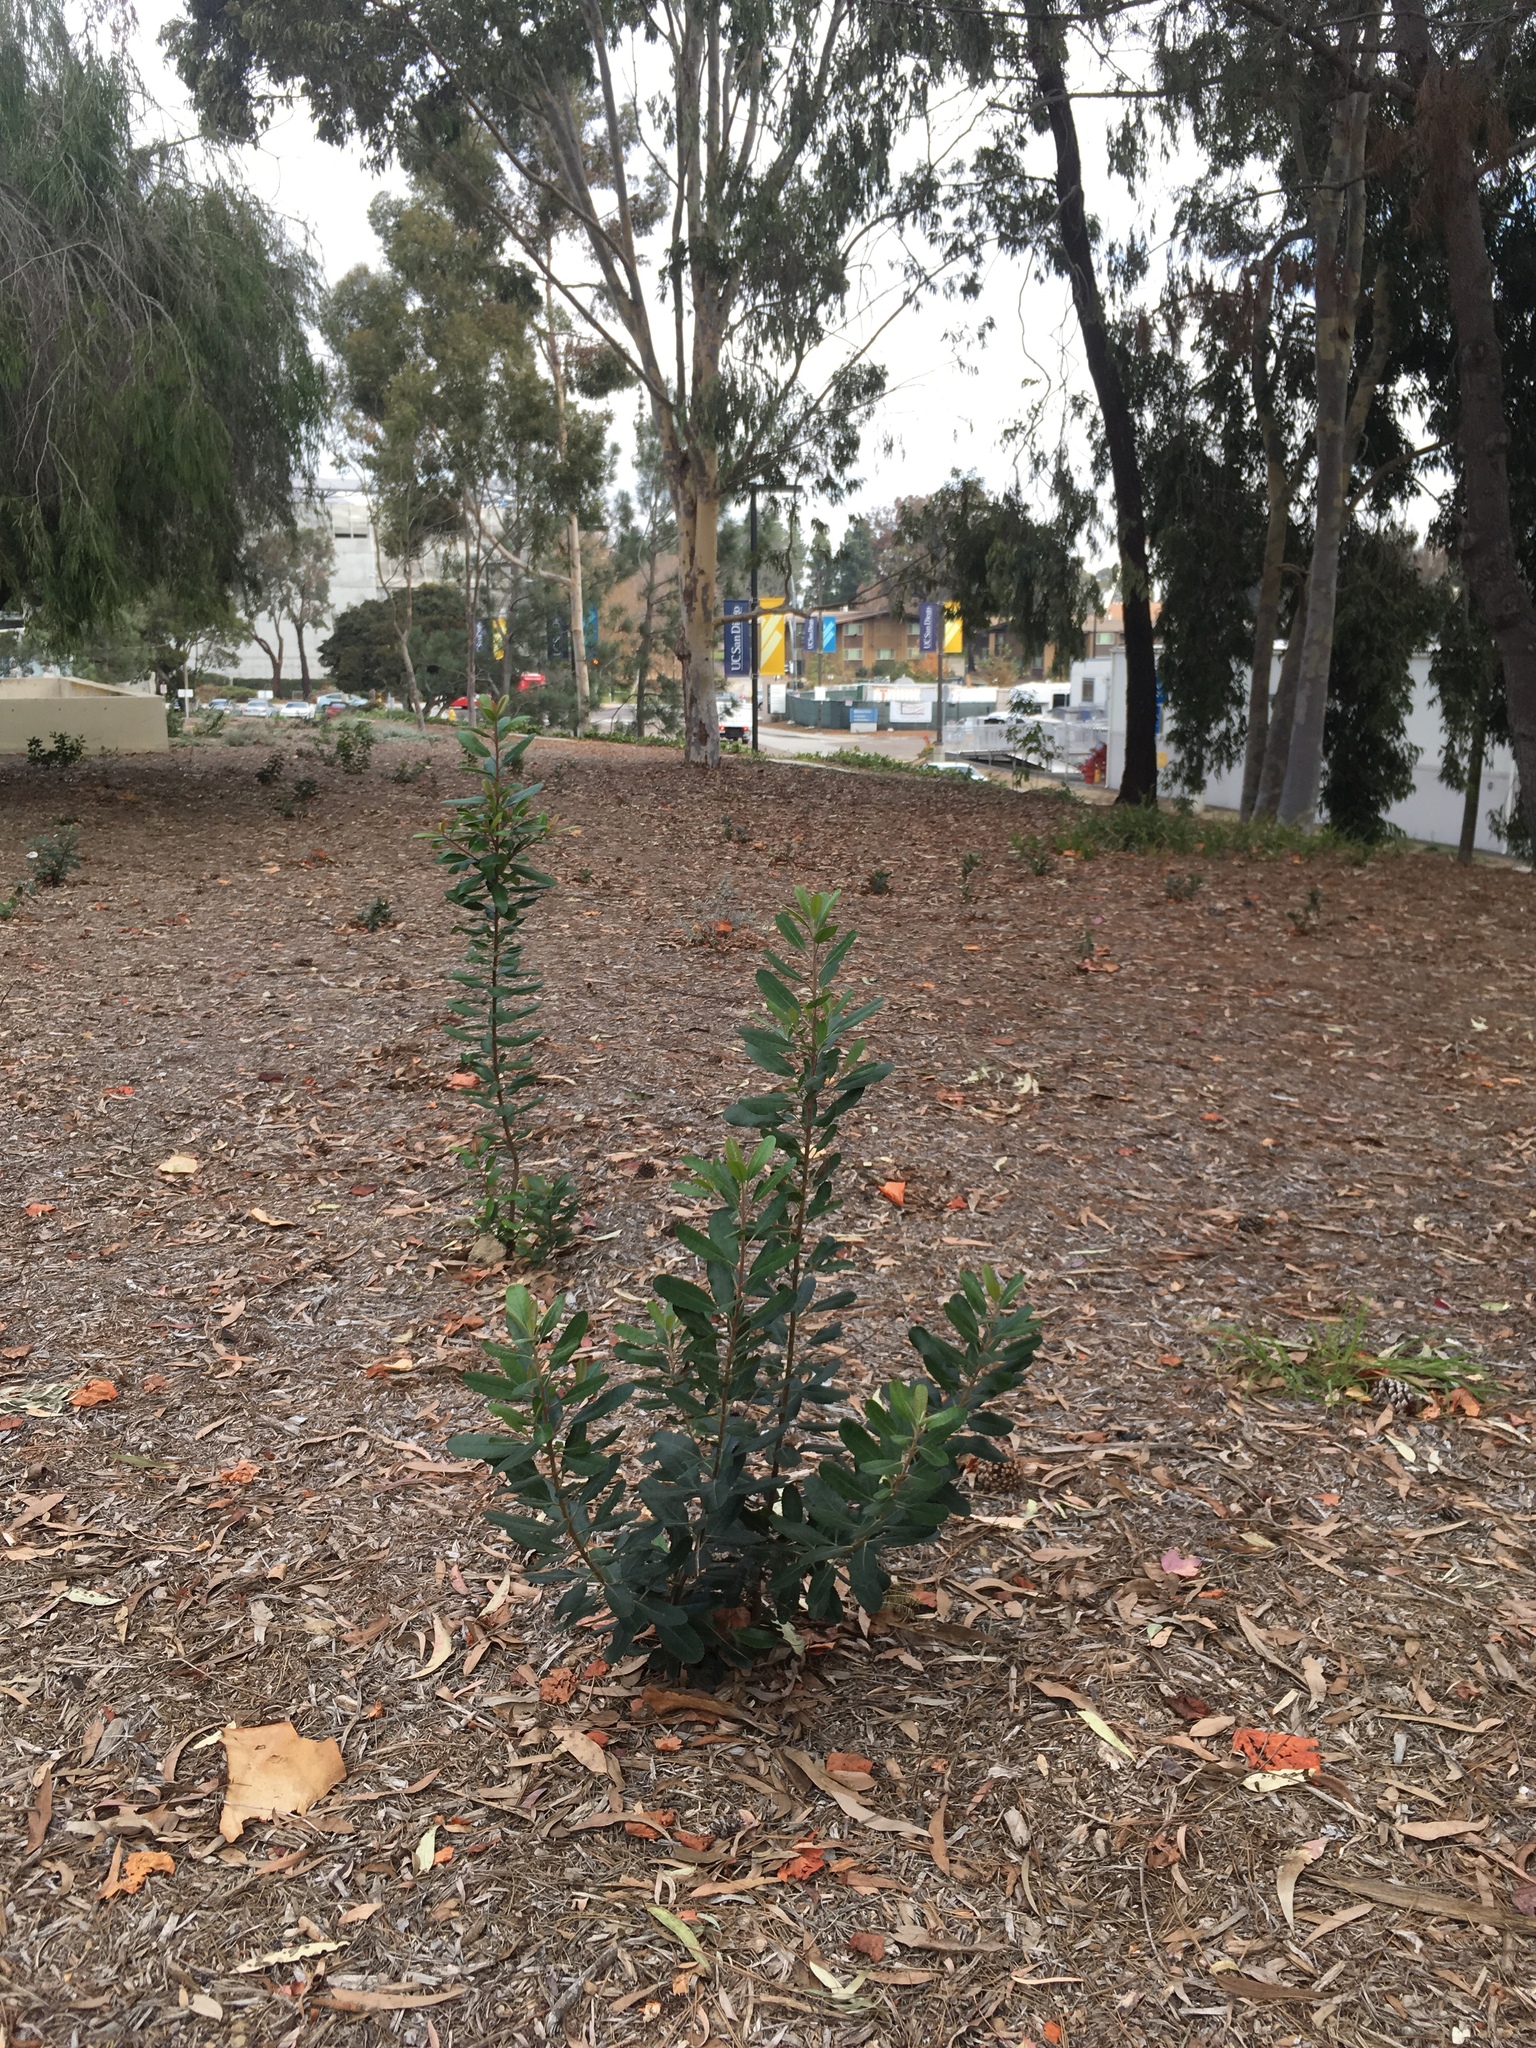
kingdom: Plantae
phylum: Tracheophyta
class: Magnoliopsida
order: Rosales
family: Rosaceae
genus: Heteromeles
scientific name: Heteromeles arbutifolia
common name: California-holly
